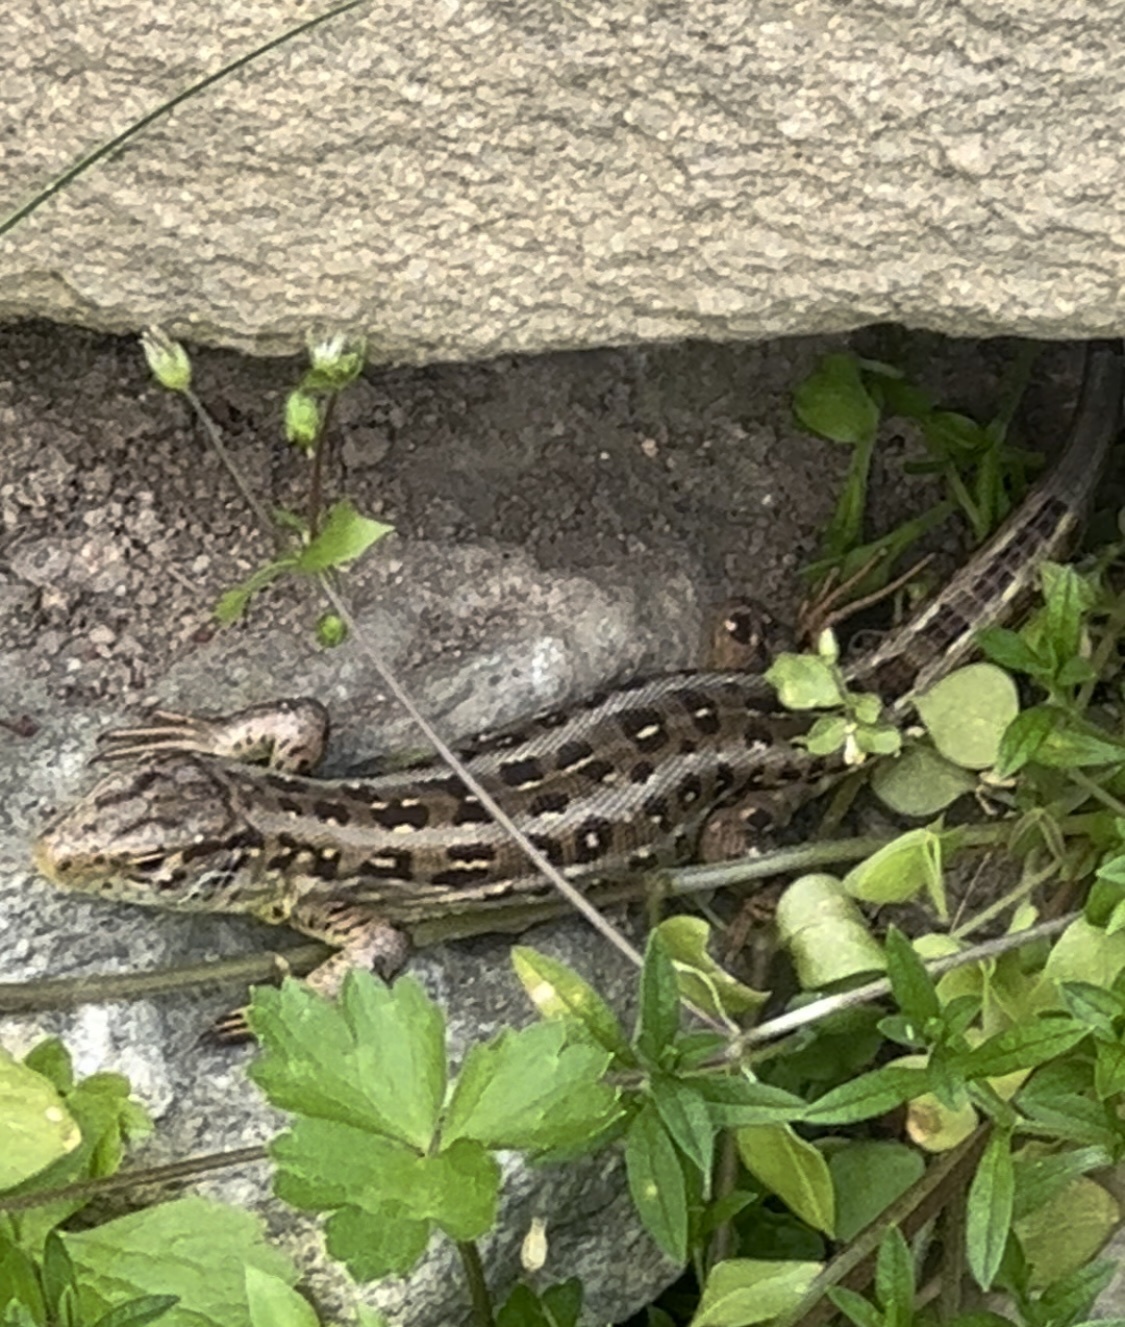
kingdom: Animalia
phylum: Chordata
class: Squamata
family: Lacertidae
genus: Lacerta
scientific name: Lacerta agilis
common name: Sand lizard
